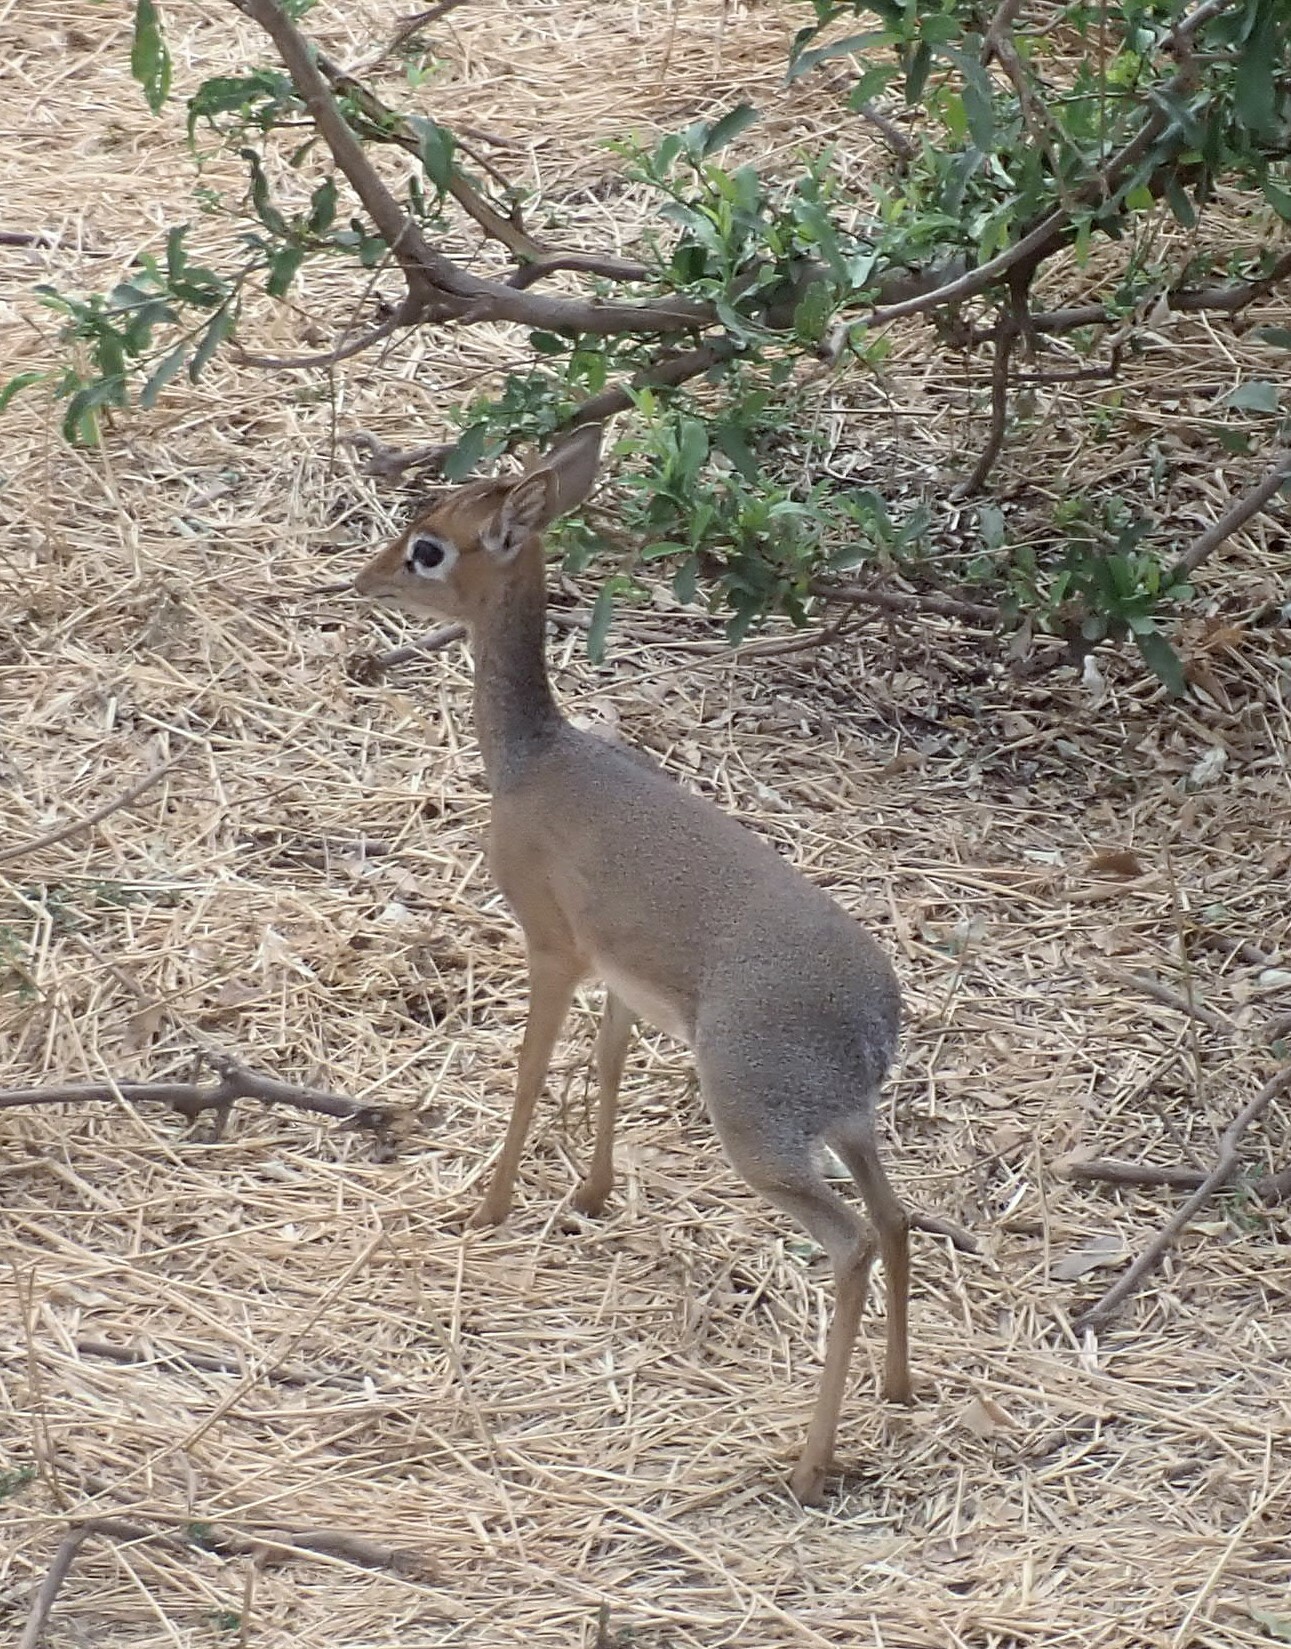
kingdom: Animalia
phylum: Chordata
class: Mammalia
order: Artiodactyla
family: Bovidae
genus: Madoqua
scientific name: Madoqua
